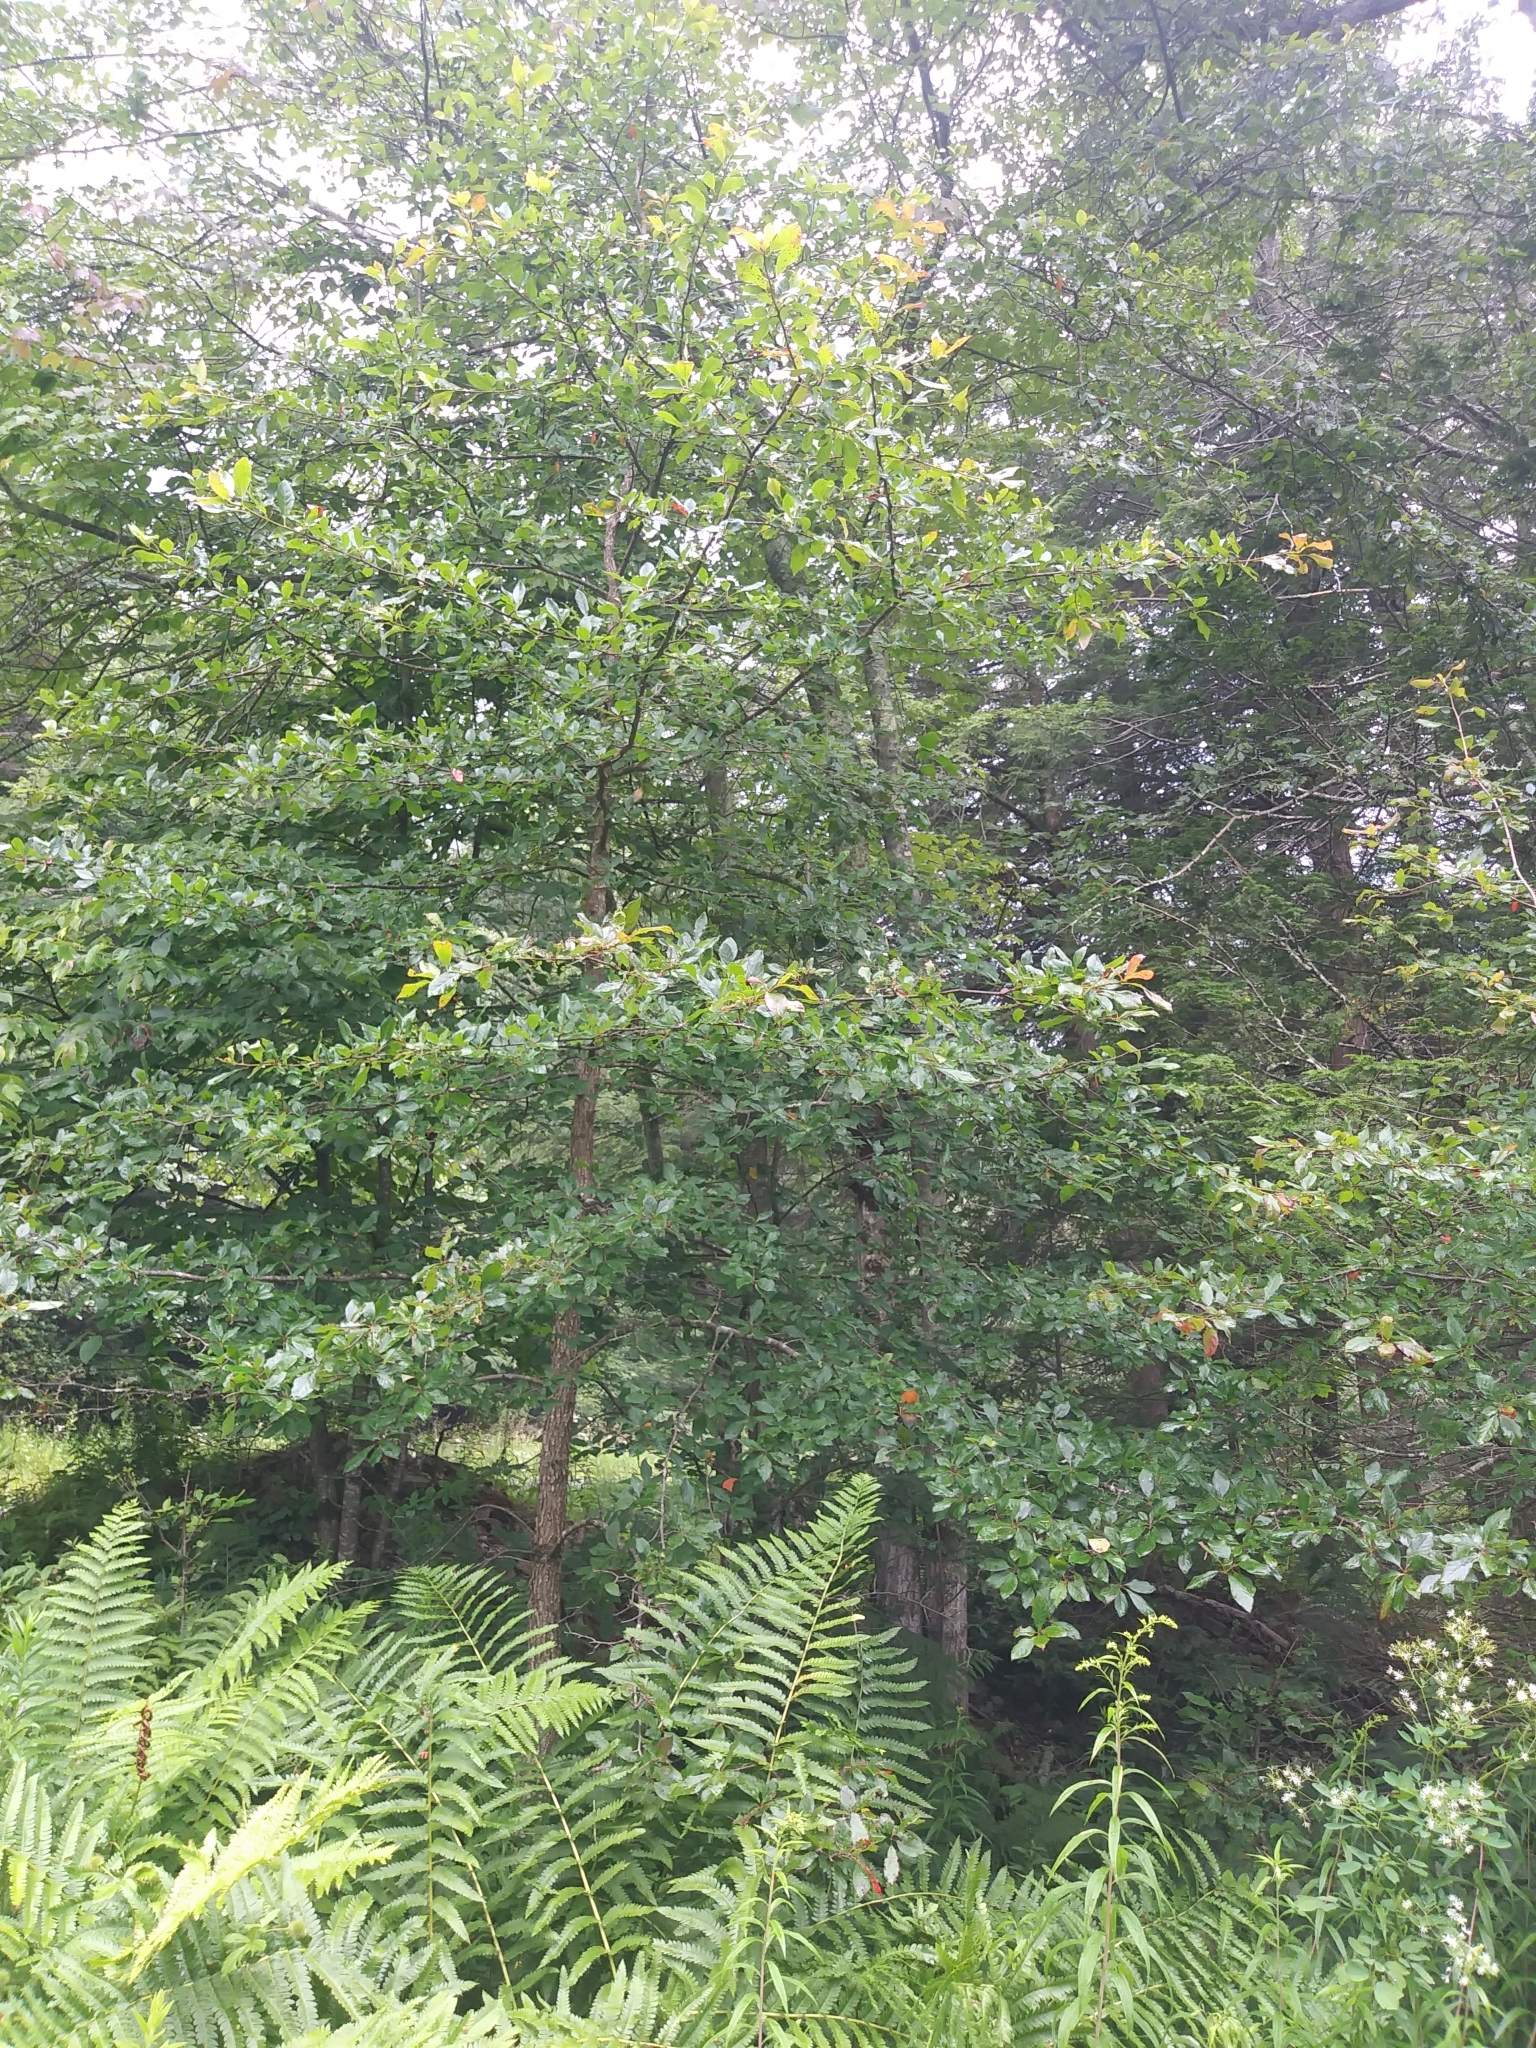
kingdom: Plantae
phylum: Tracheophyta
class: Magnoliopsida
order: Cornales
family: Nyssaceae
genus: Nyssa
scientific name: Nyssa sylvatica
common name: Black tupelo
